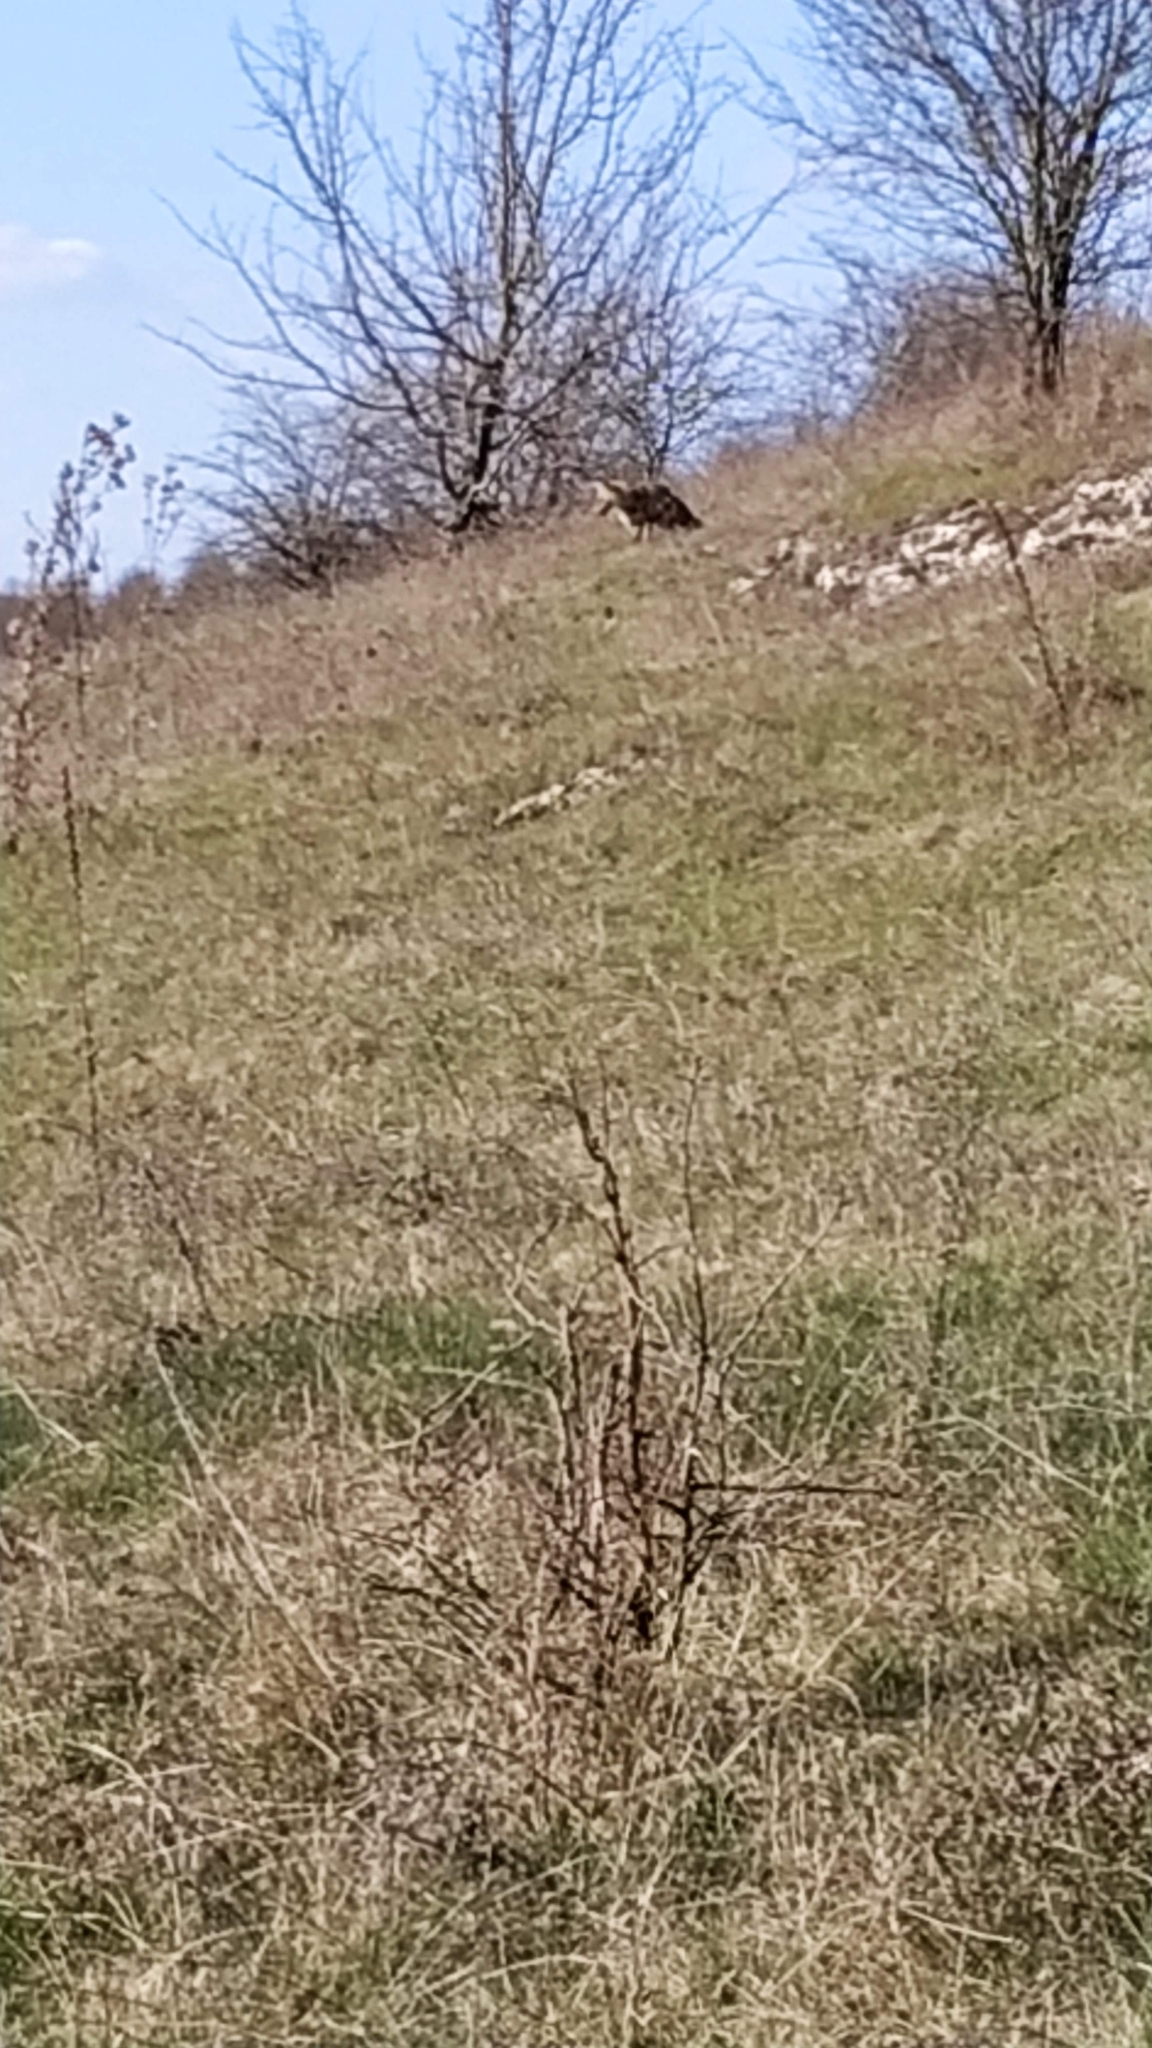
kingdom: Animalia
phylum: Chordata
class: Mammalia
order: Carnivora
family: Canidae
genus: Vulpes
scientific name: Vulpes vulpes
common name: Red fox
